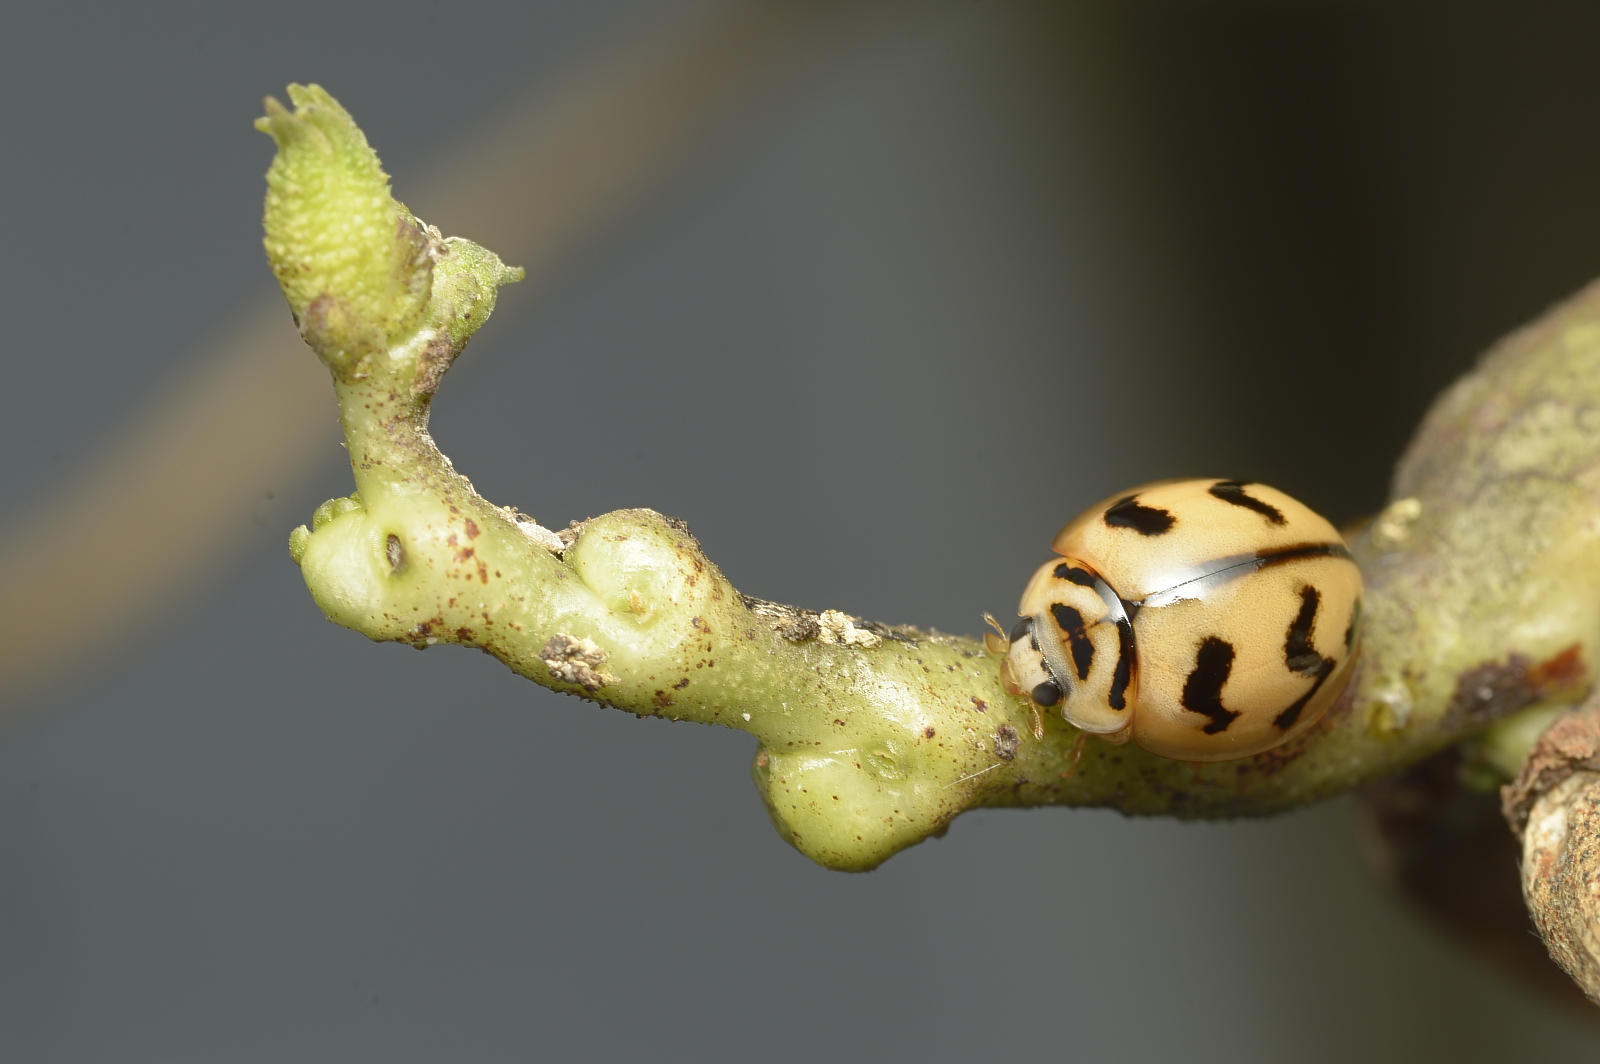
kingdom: Animalia
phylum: Arthropoda
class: Insecta
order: Coleoptera
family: Coccinellidae
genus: Cheilomenes
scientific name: Cheilomenes sexmaculata
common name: Ladybird beetle
